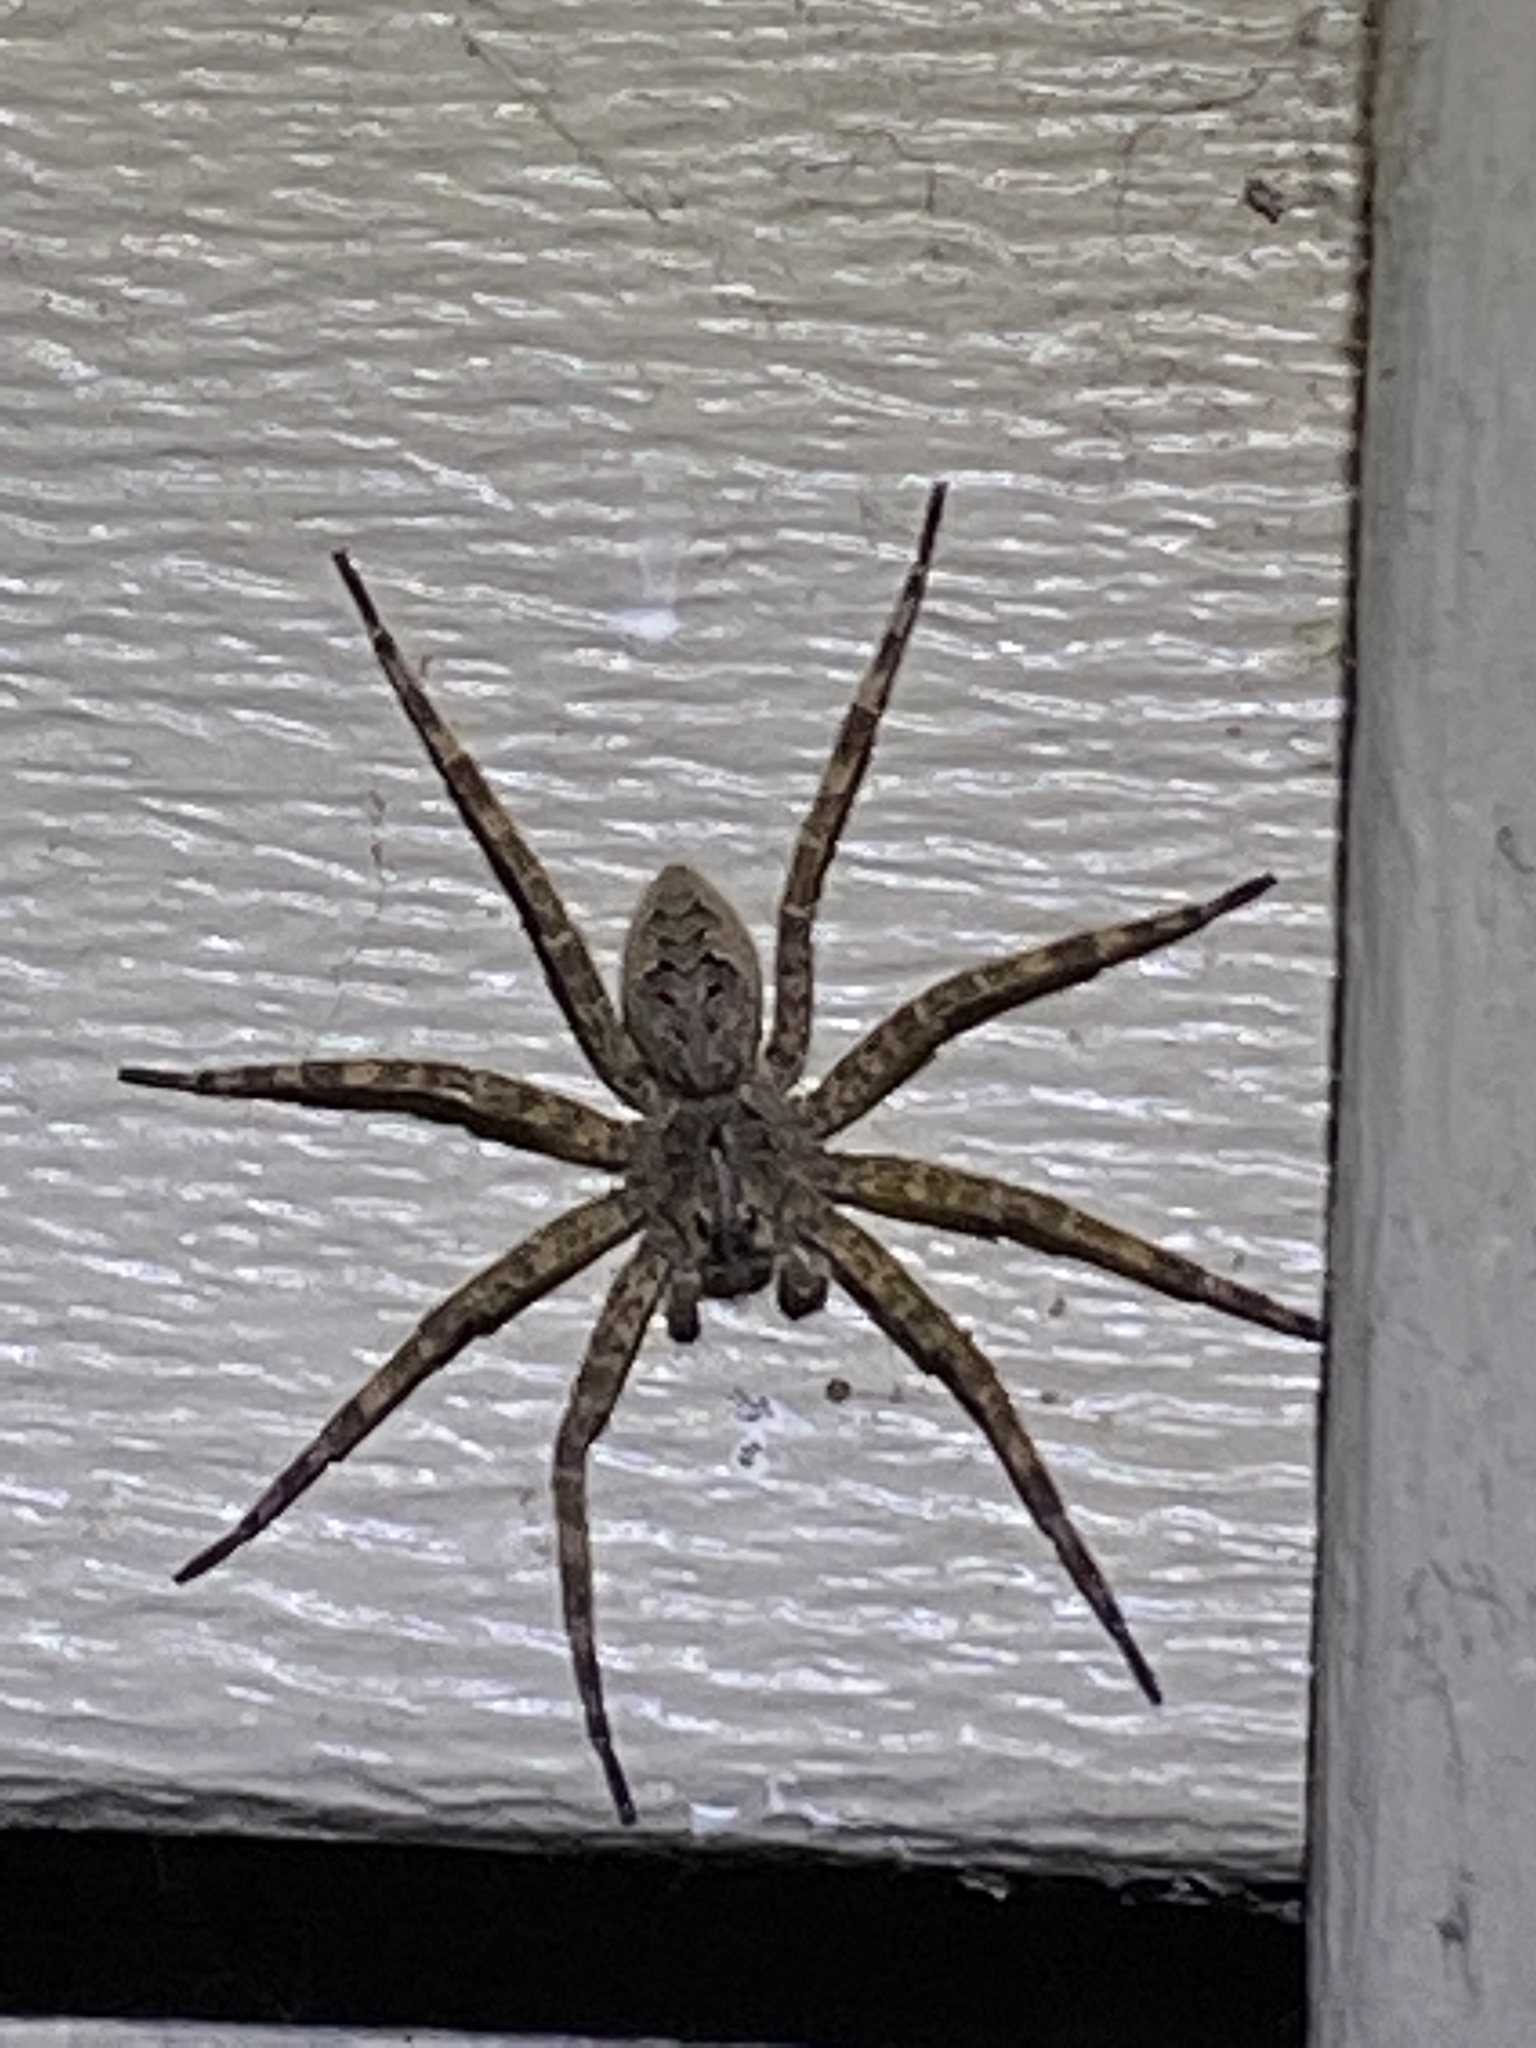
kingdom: Animalia
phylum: Arthropoda
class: Arachnida
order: Araneae
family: Pisauridae
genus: Dolomedes
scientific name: Dolomedes tenebrosus
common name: Dark fishing spider
